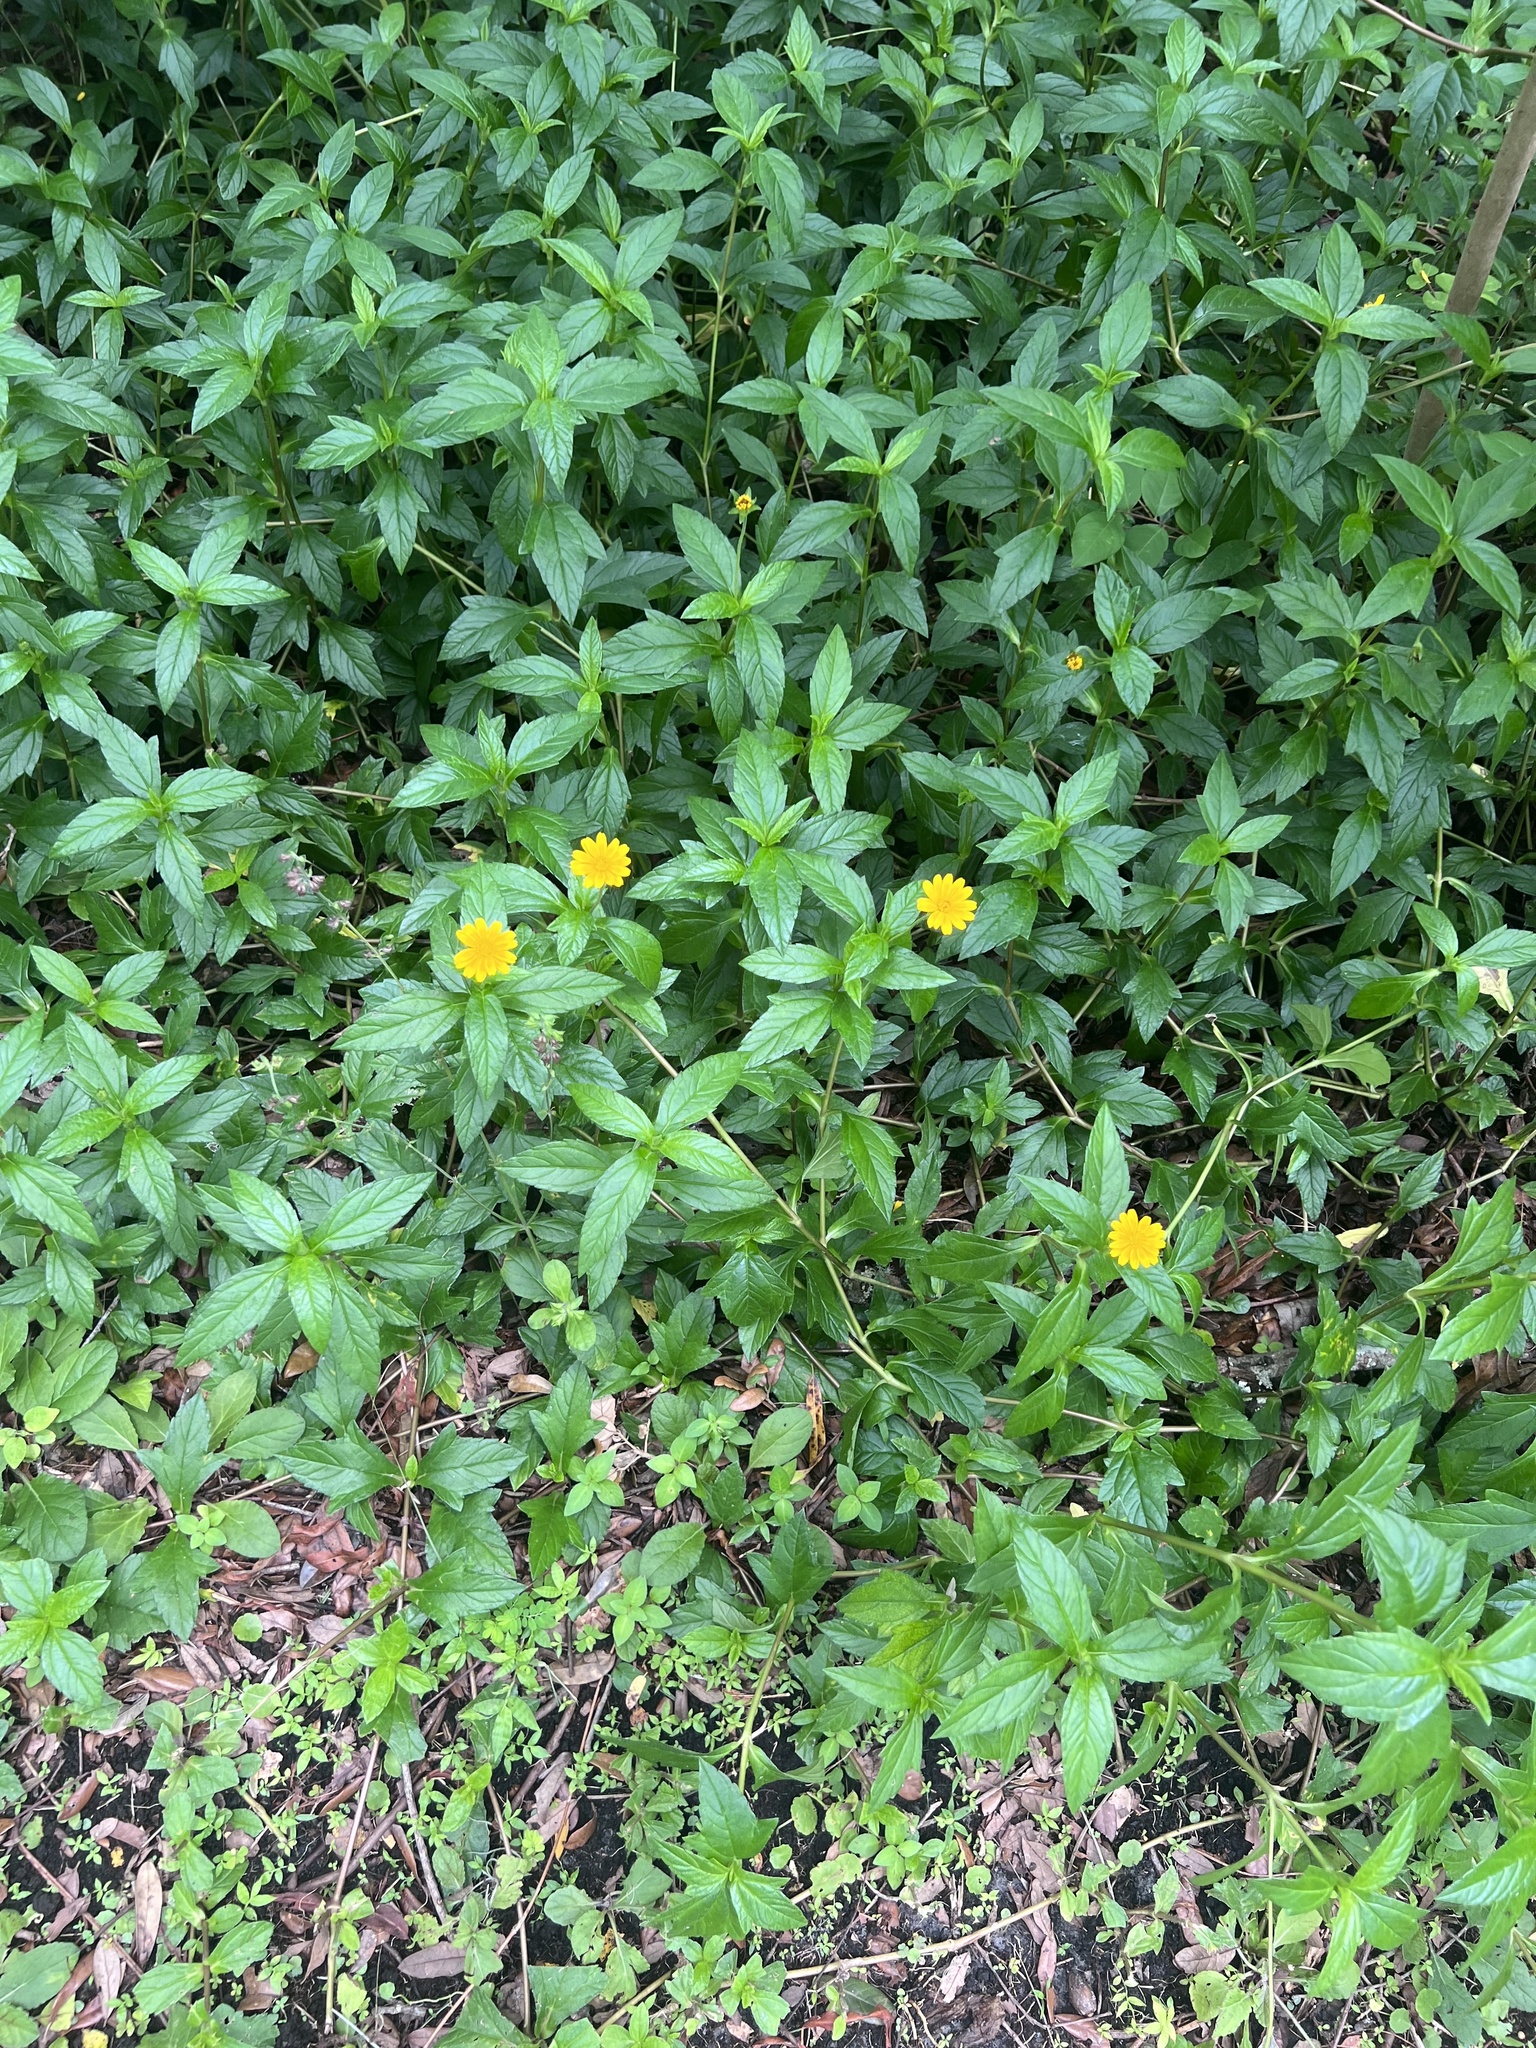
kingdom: Plantae
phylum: Tracheophyta
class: Magnoliopsida
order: Asterales
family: Asteraceae
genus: Sphagneticola
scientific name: Sphagneticola trilobata
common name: Bay biscayne creeping-oxeye
